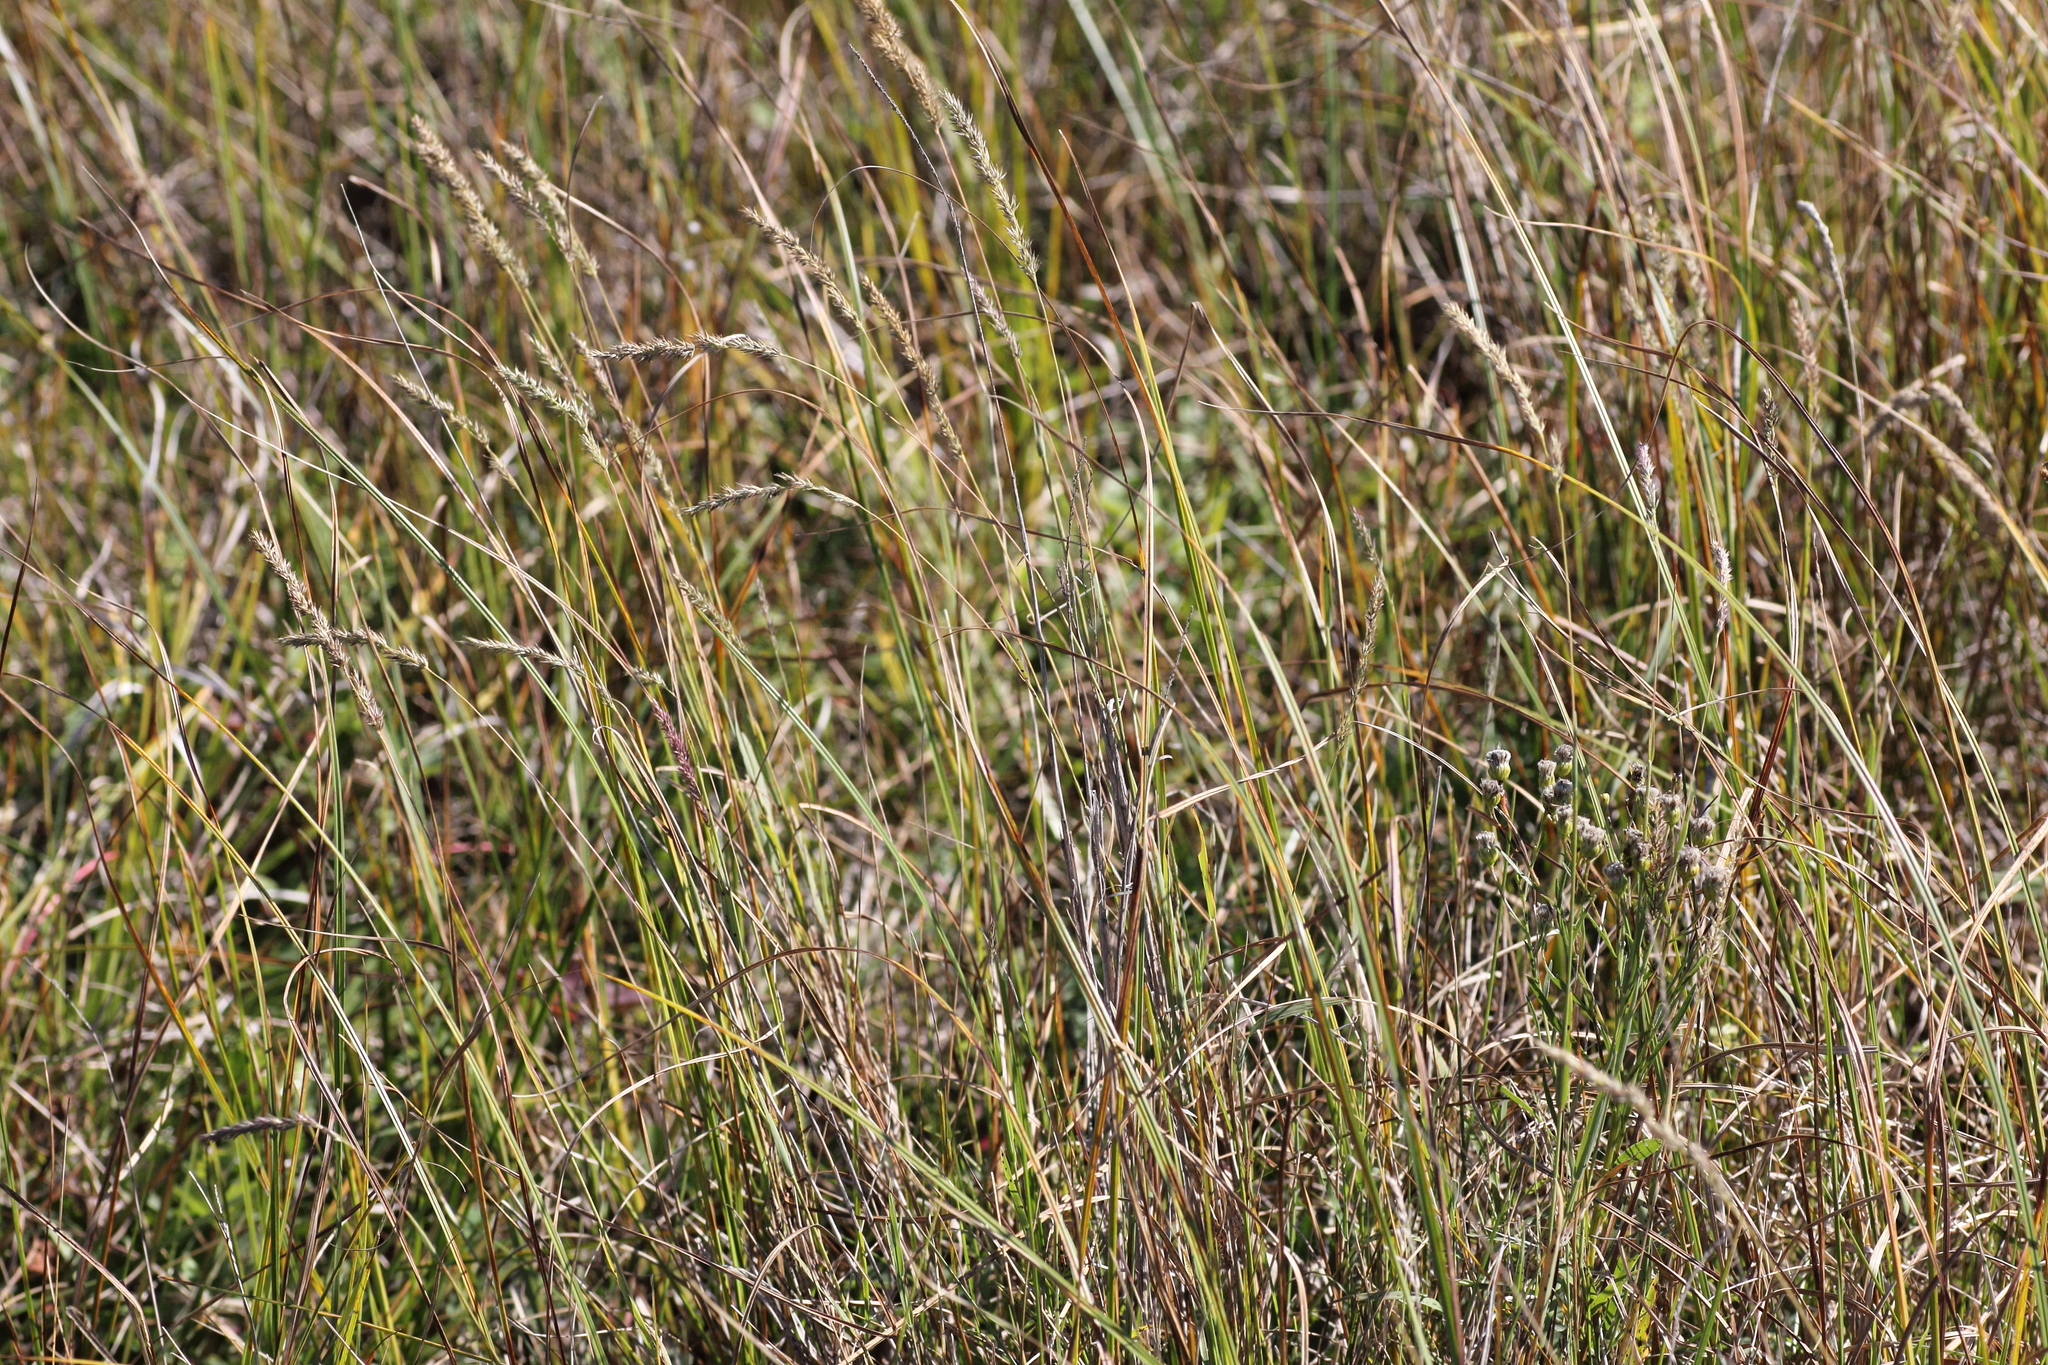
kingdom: Plantae
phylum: Tracheophyta
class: Liliopsida
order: Poales
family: Poaceae
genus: Muhlenbergia
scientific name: Muhlenbergia glomerata
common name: Bog muhly
